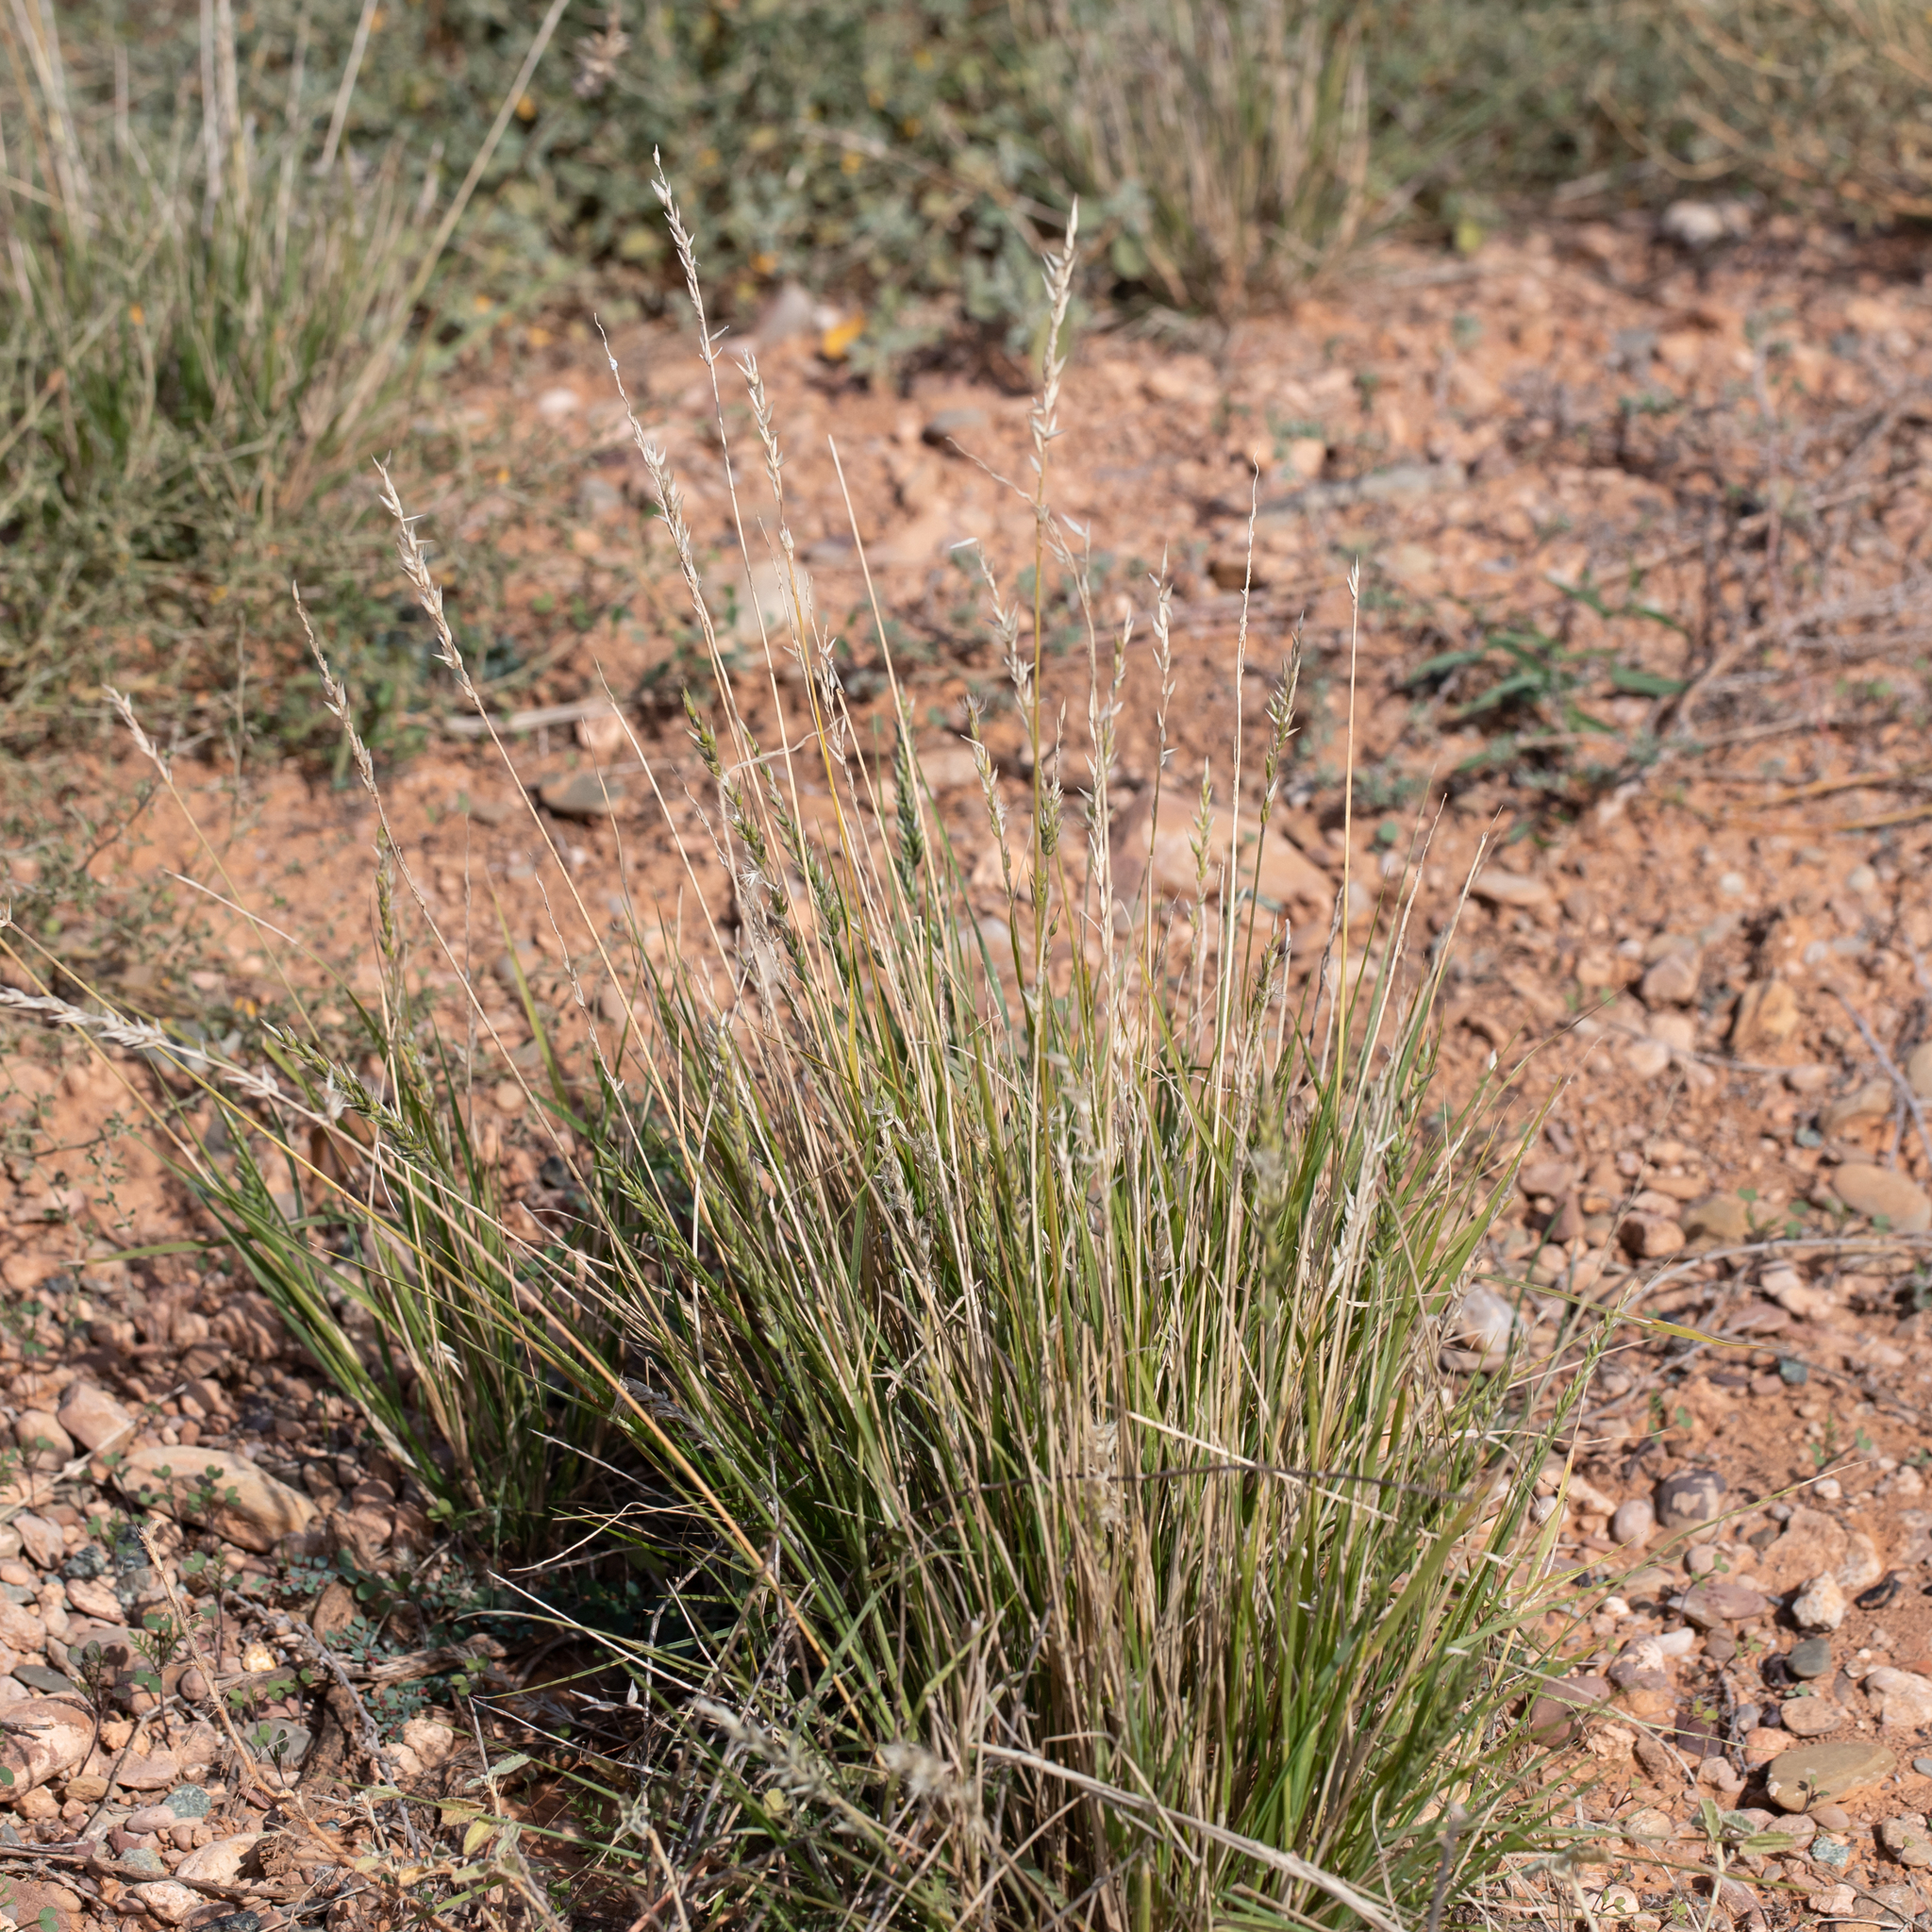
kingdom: Plantae
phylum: Tracheophyta
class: Liliopsida
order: Poales
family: Poaceae
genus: Enneapogon
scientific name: Enneapogon avenaceus
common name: Hairy oat grass
